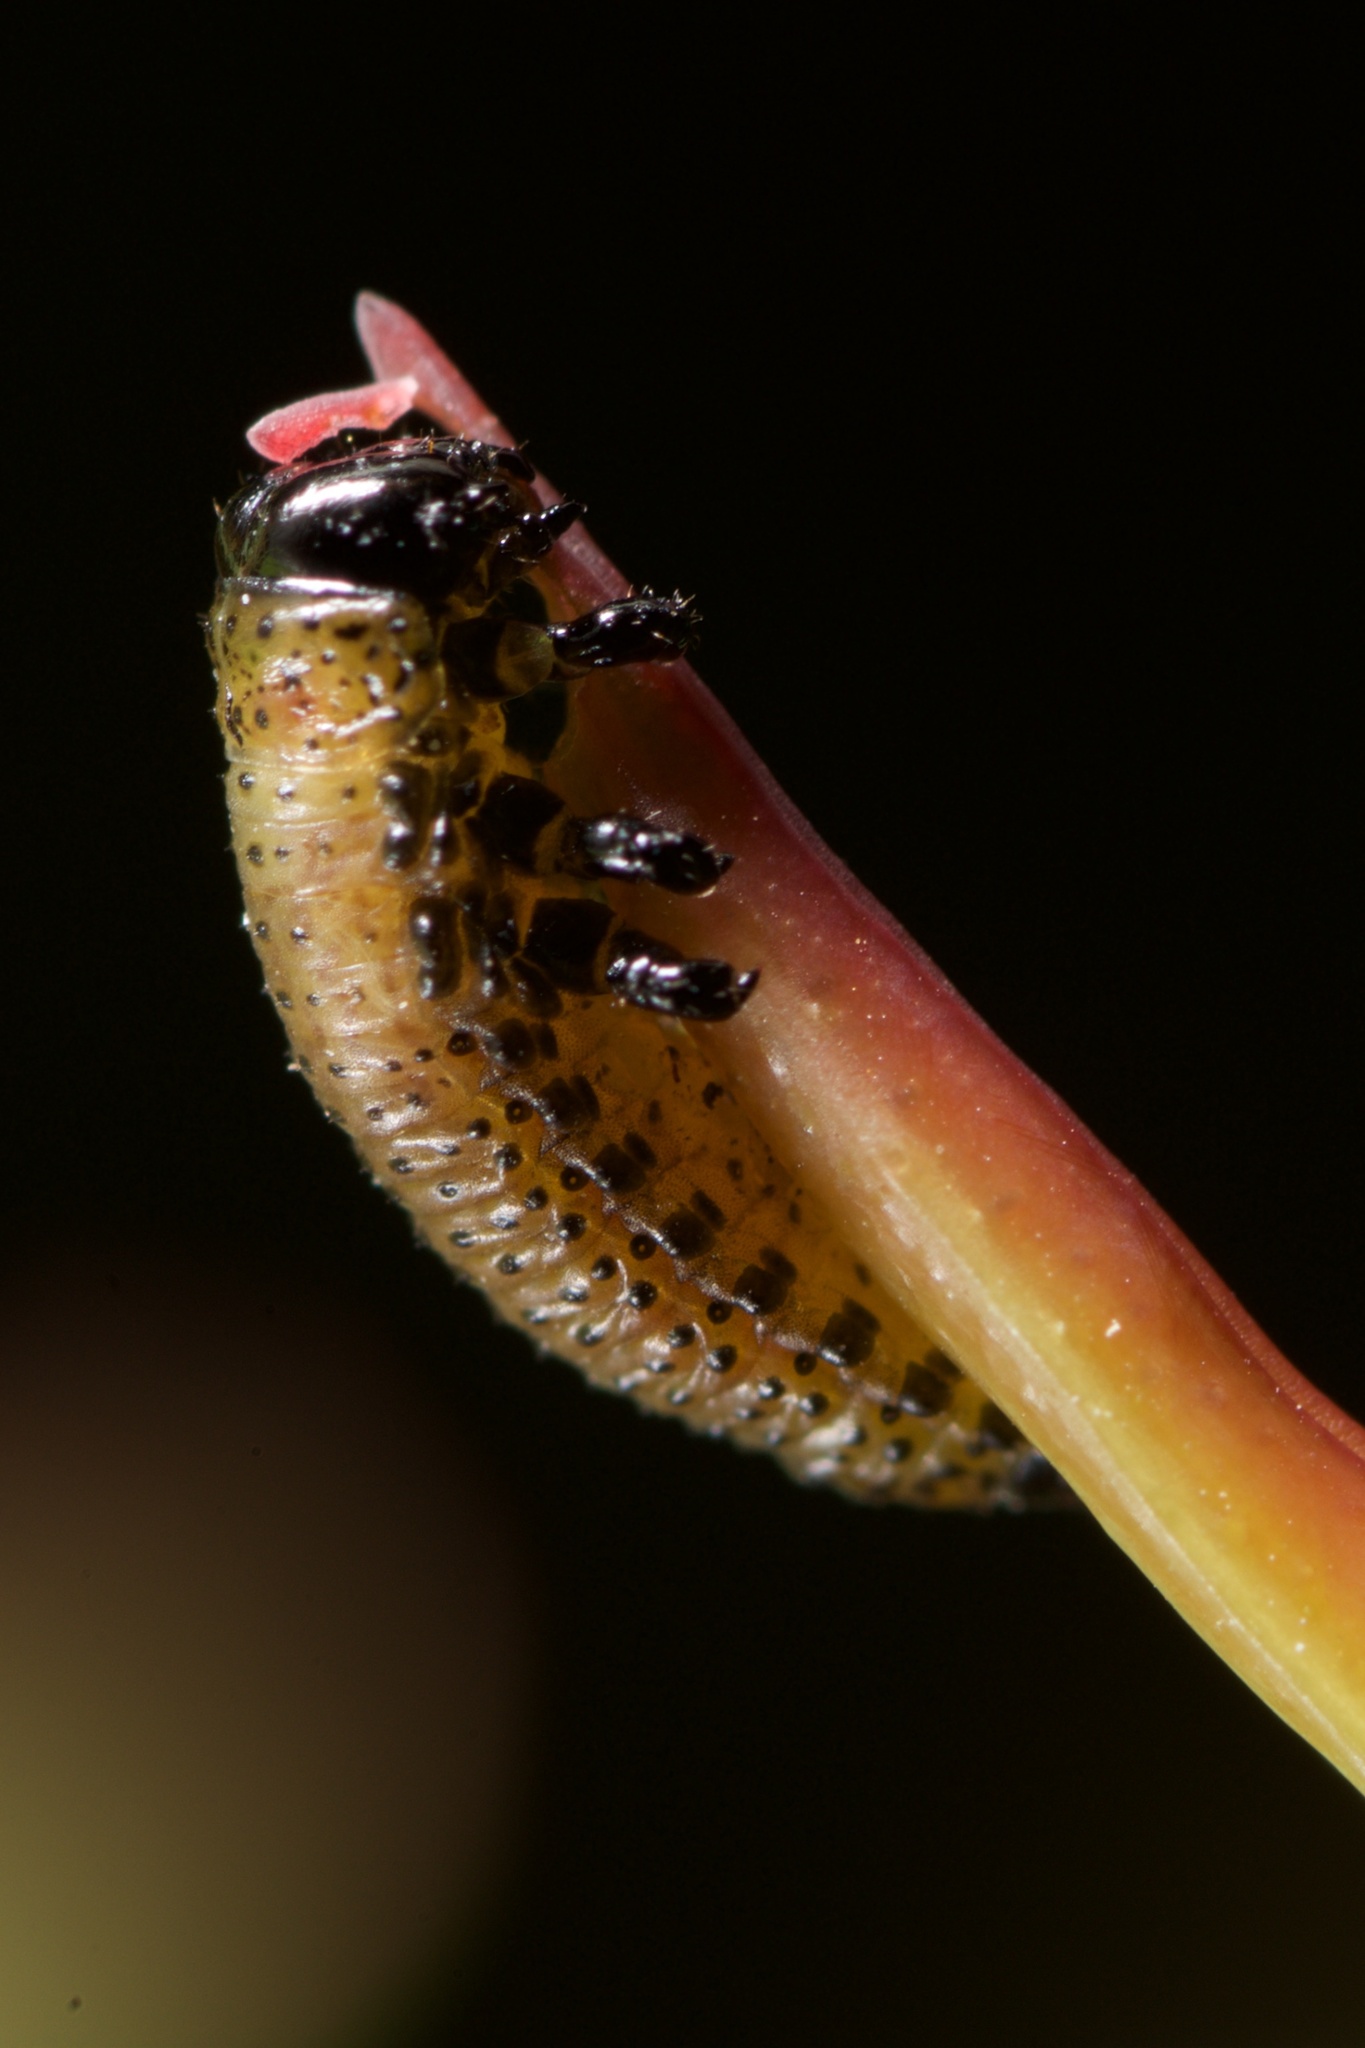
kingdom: Animalia
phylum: Arthropoda
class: Insecta
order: Coleoptera
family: Chrysomelidae
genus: Paropsis
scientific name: Paropsis charybdis
